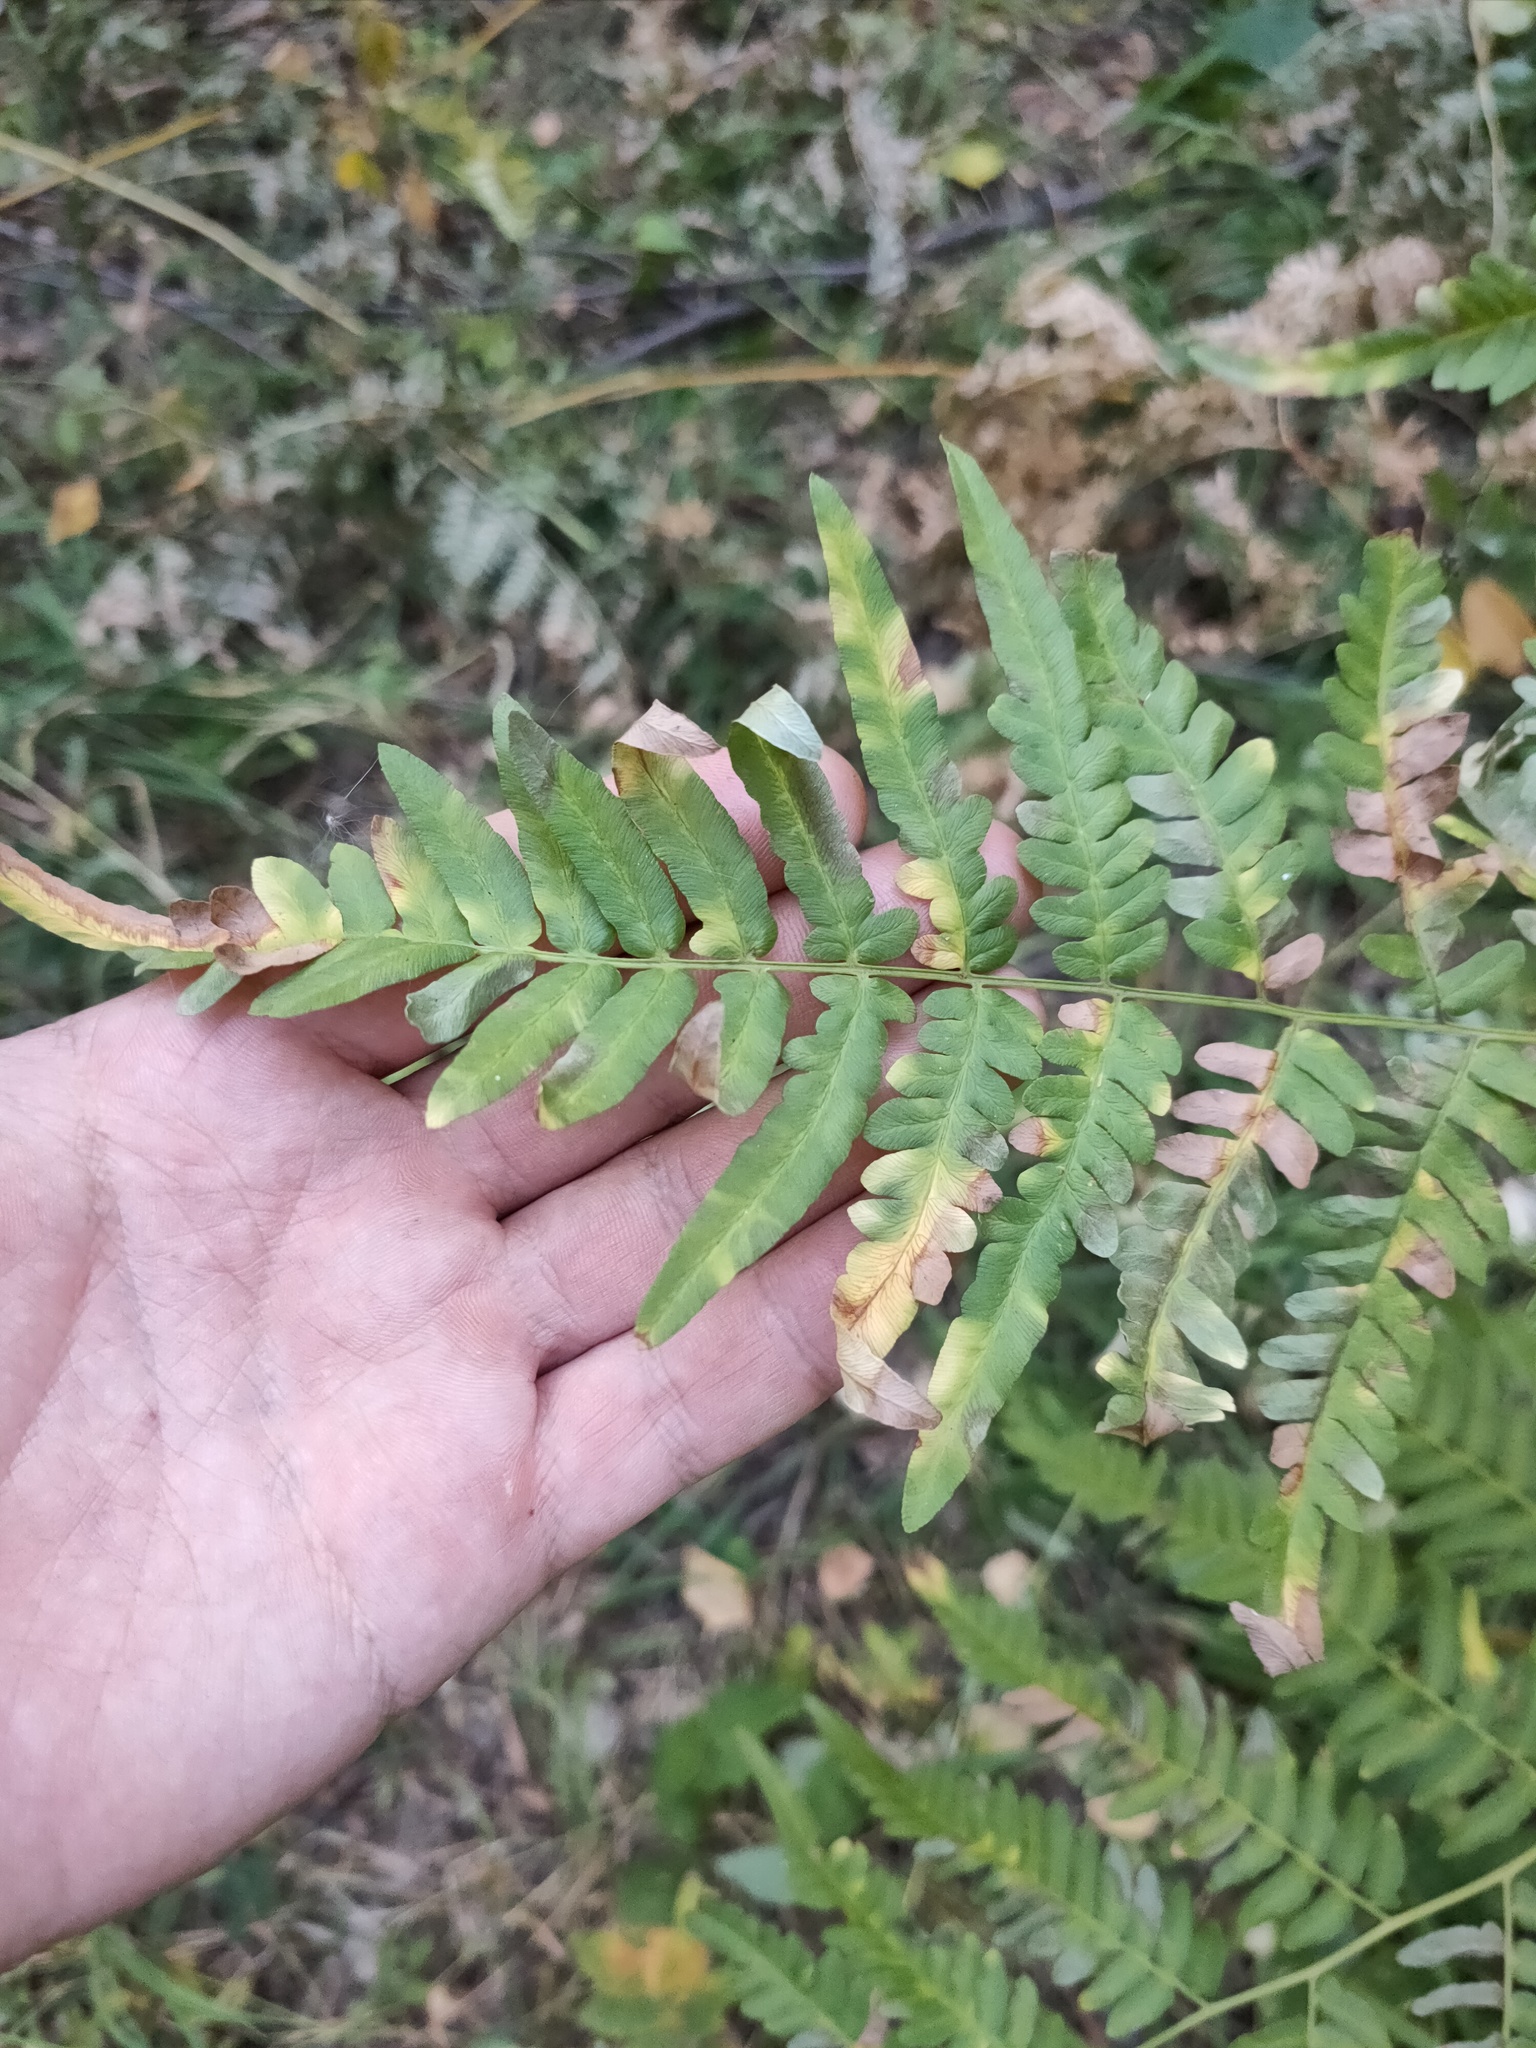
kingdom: Plantae
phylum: Tracheophyta
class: Polypodiopsida
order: Polypodiales
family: Dennstaedtiaceae
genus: Pteridium
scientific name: Pteridium aquilinum
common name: Bracken
